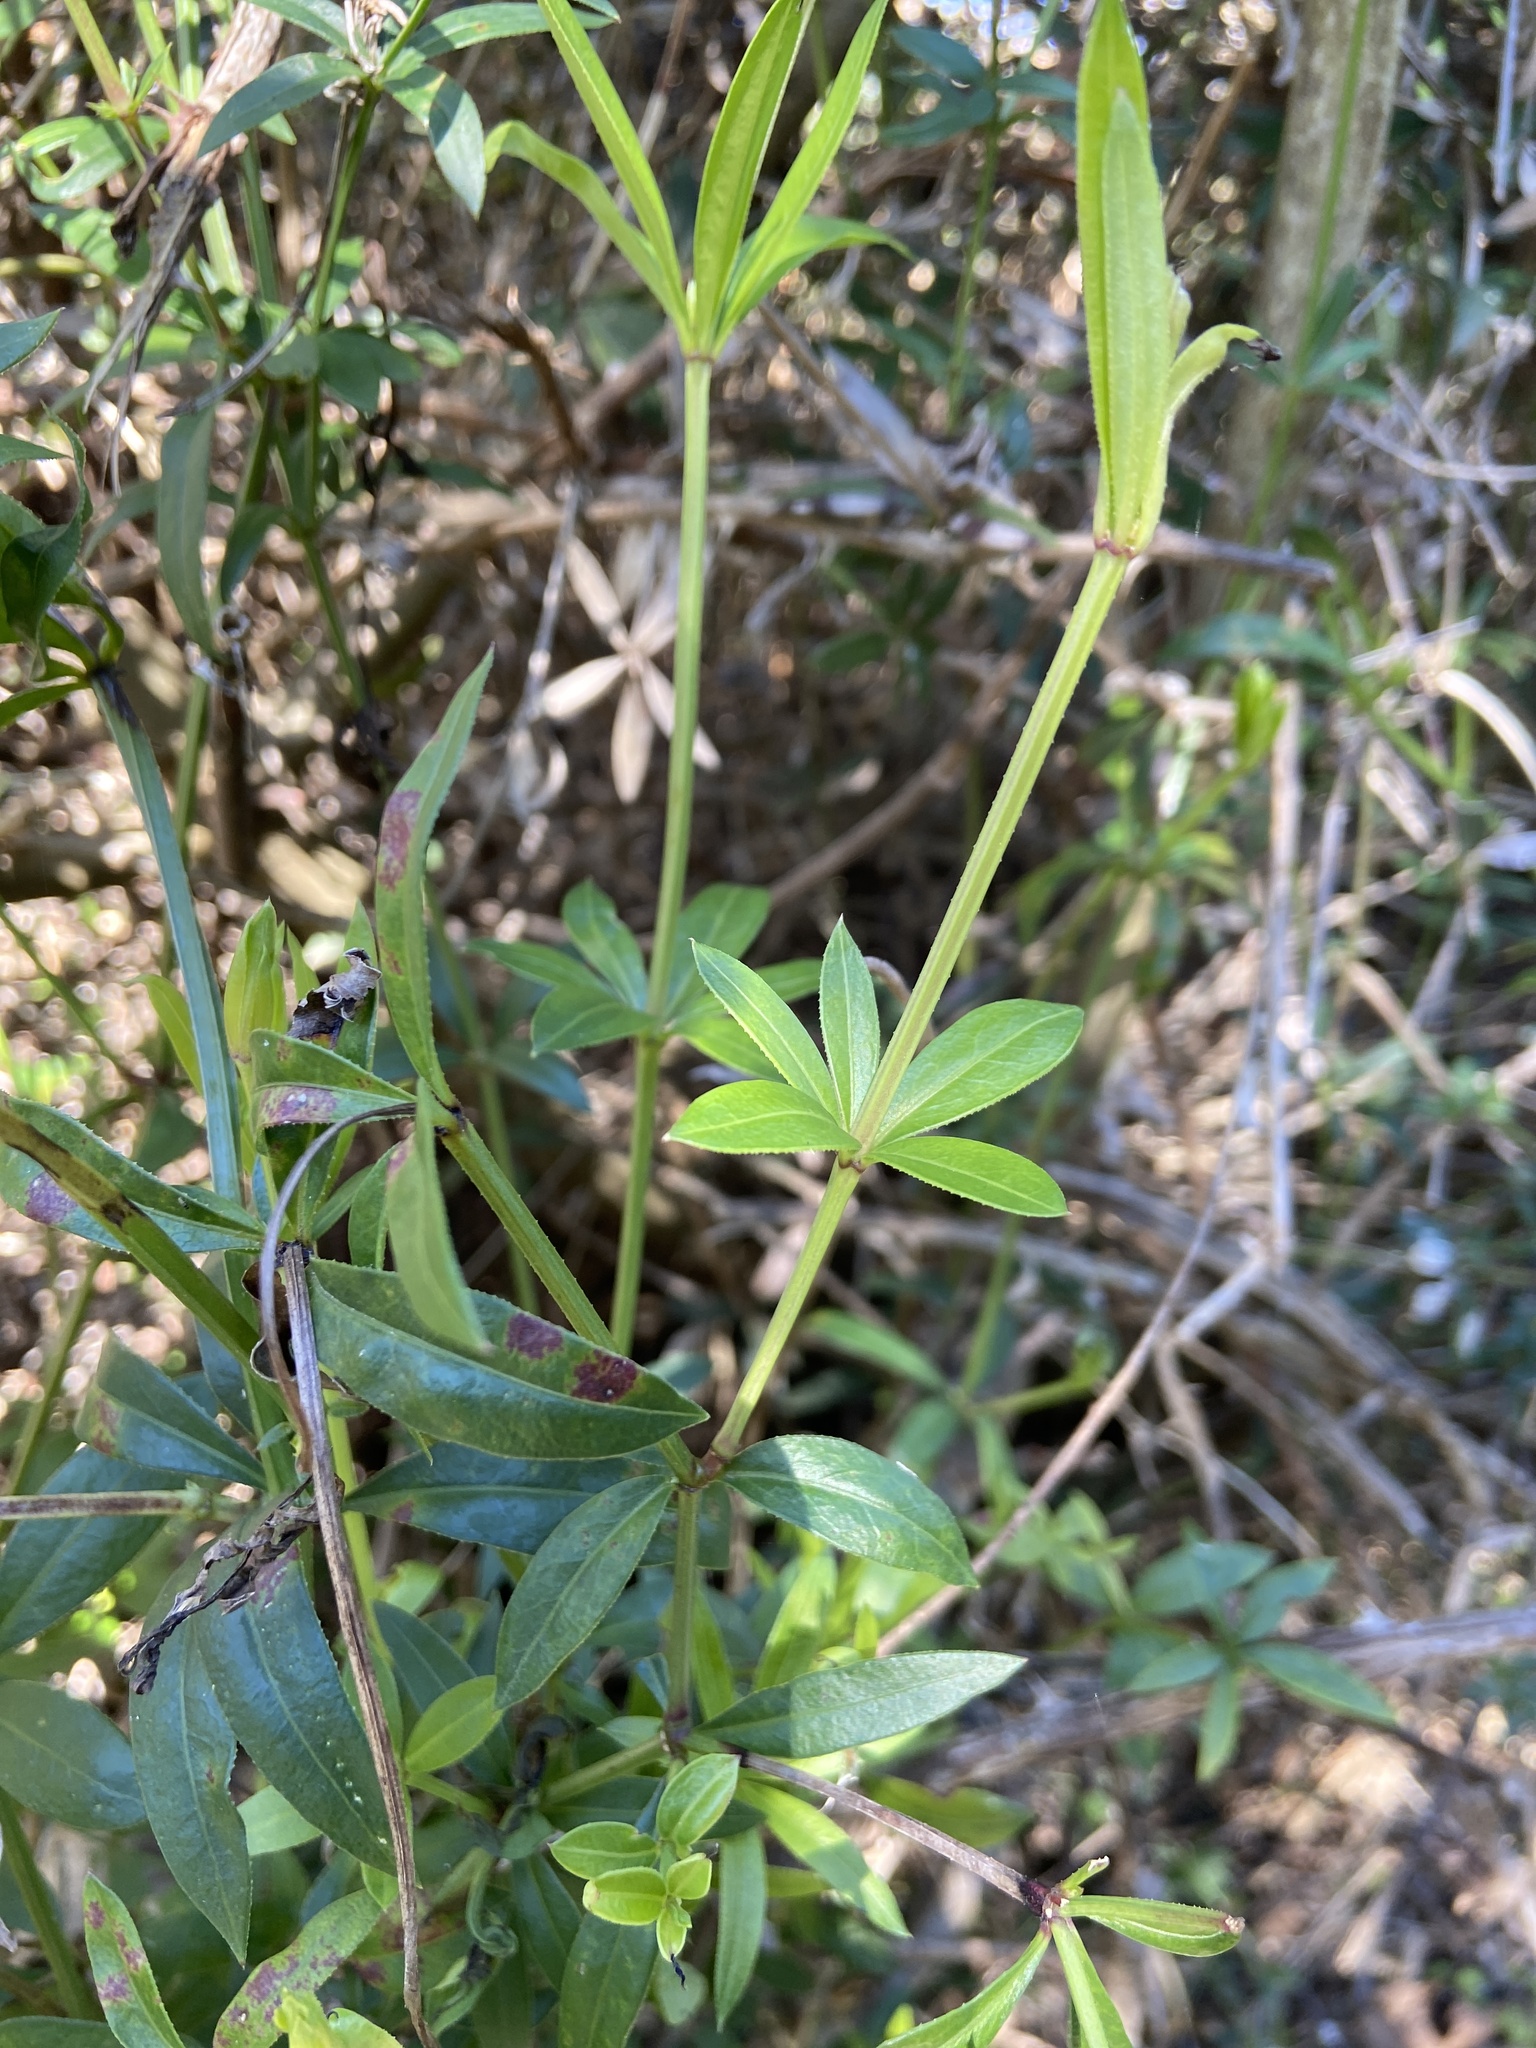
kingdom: Plantae
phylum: Tracheophyta
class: Magnoliopsida
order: Gentianales
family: Rubiaceae
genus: Rubia
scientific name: Rubia peregrina
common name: Wild madder
